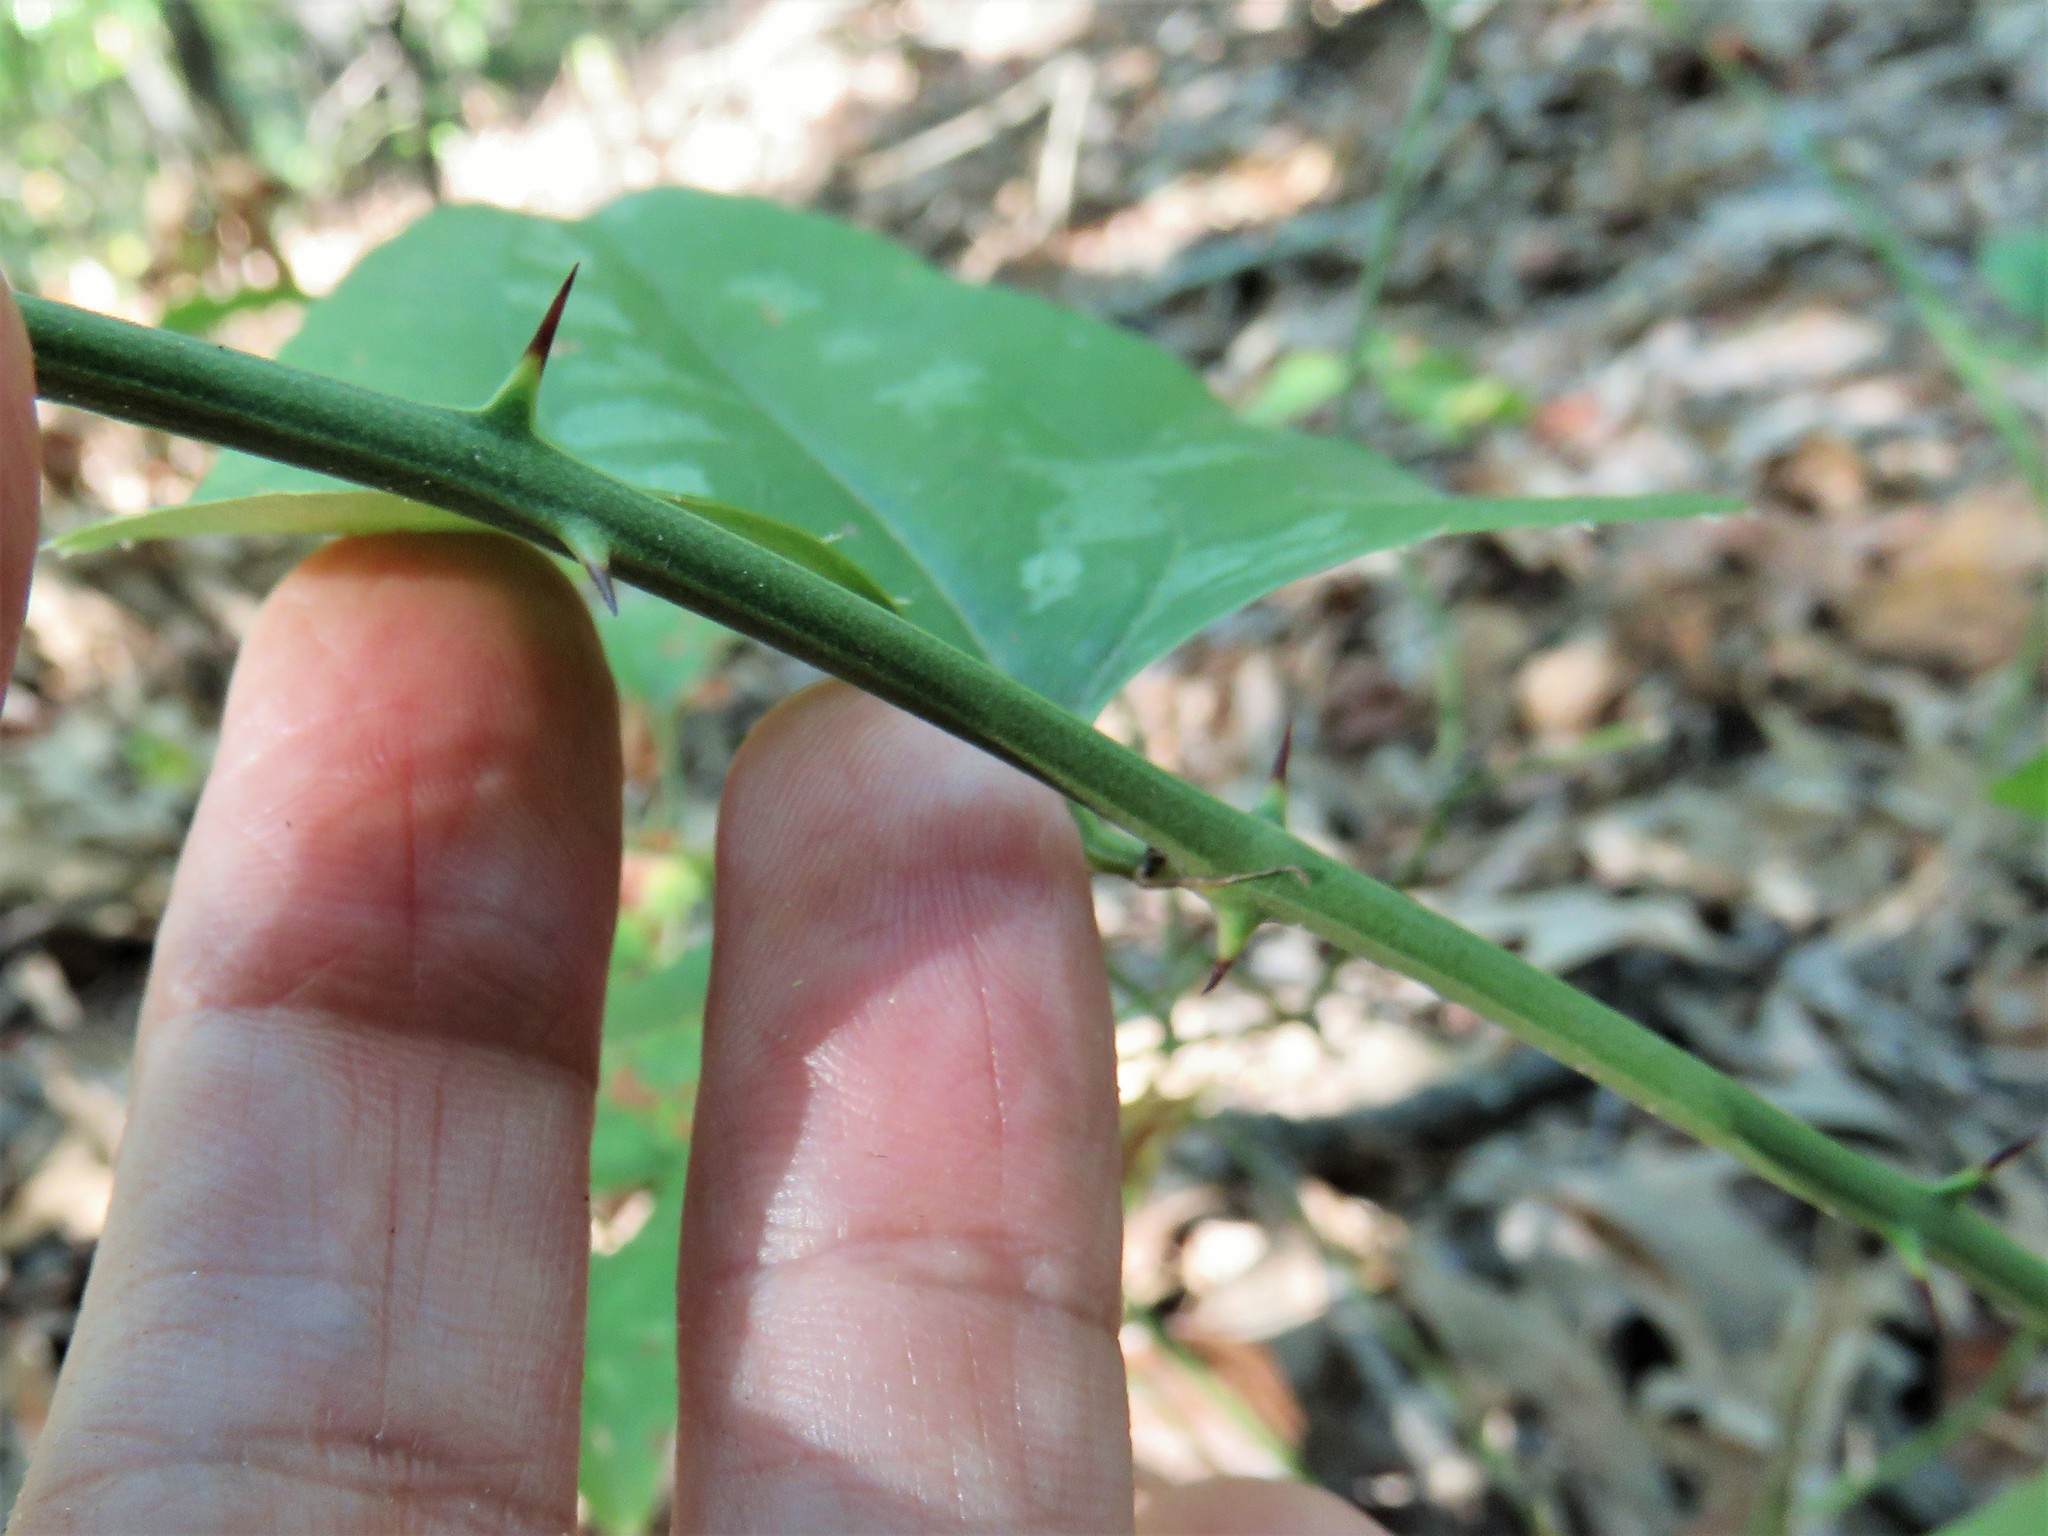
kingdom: Plantae
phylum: Tracheophyta
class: Liliopsida
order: Liliales
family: Smilacaceae
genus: Smilax
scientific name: Smilax bona-nox
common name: Catbrier
